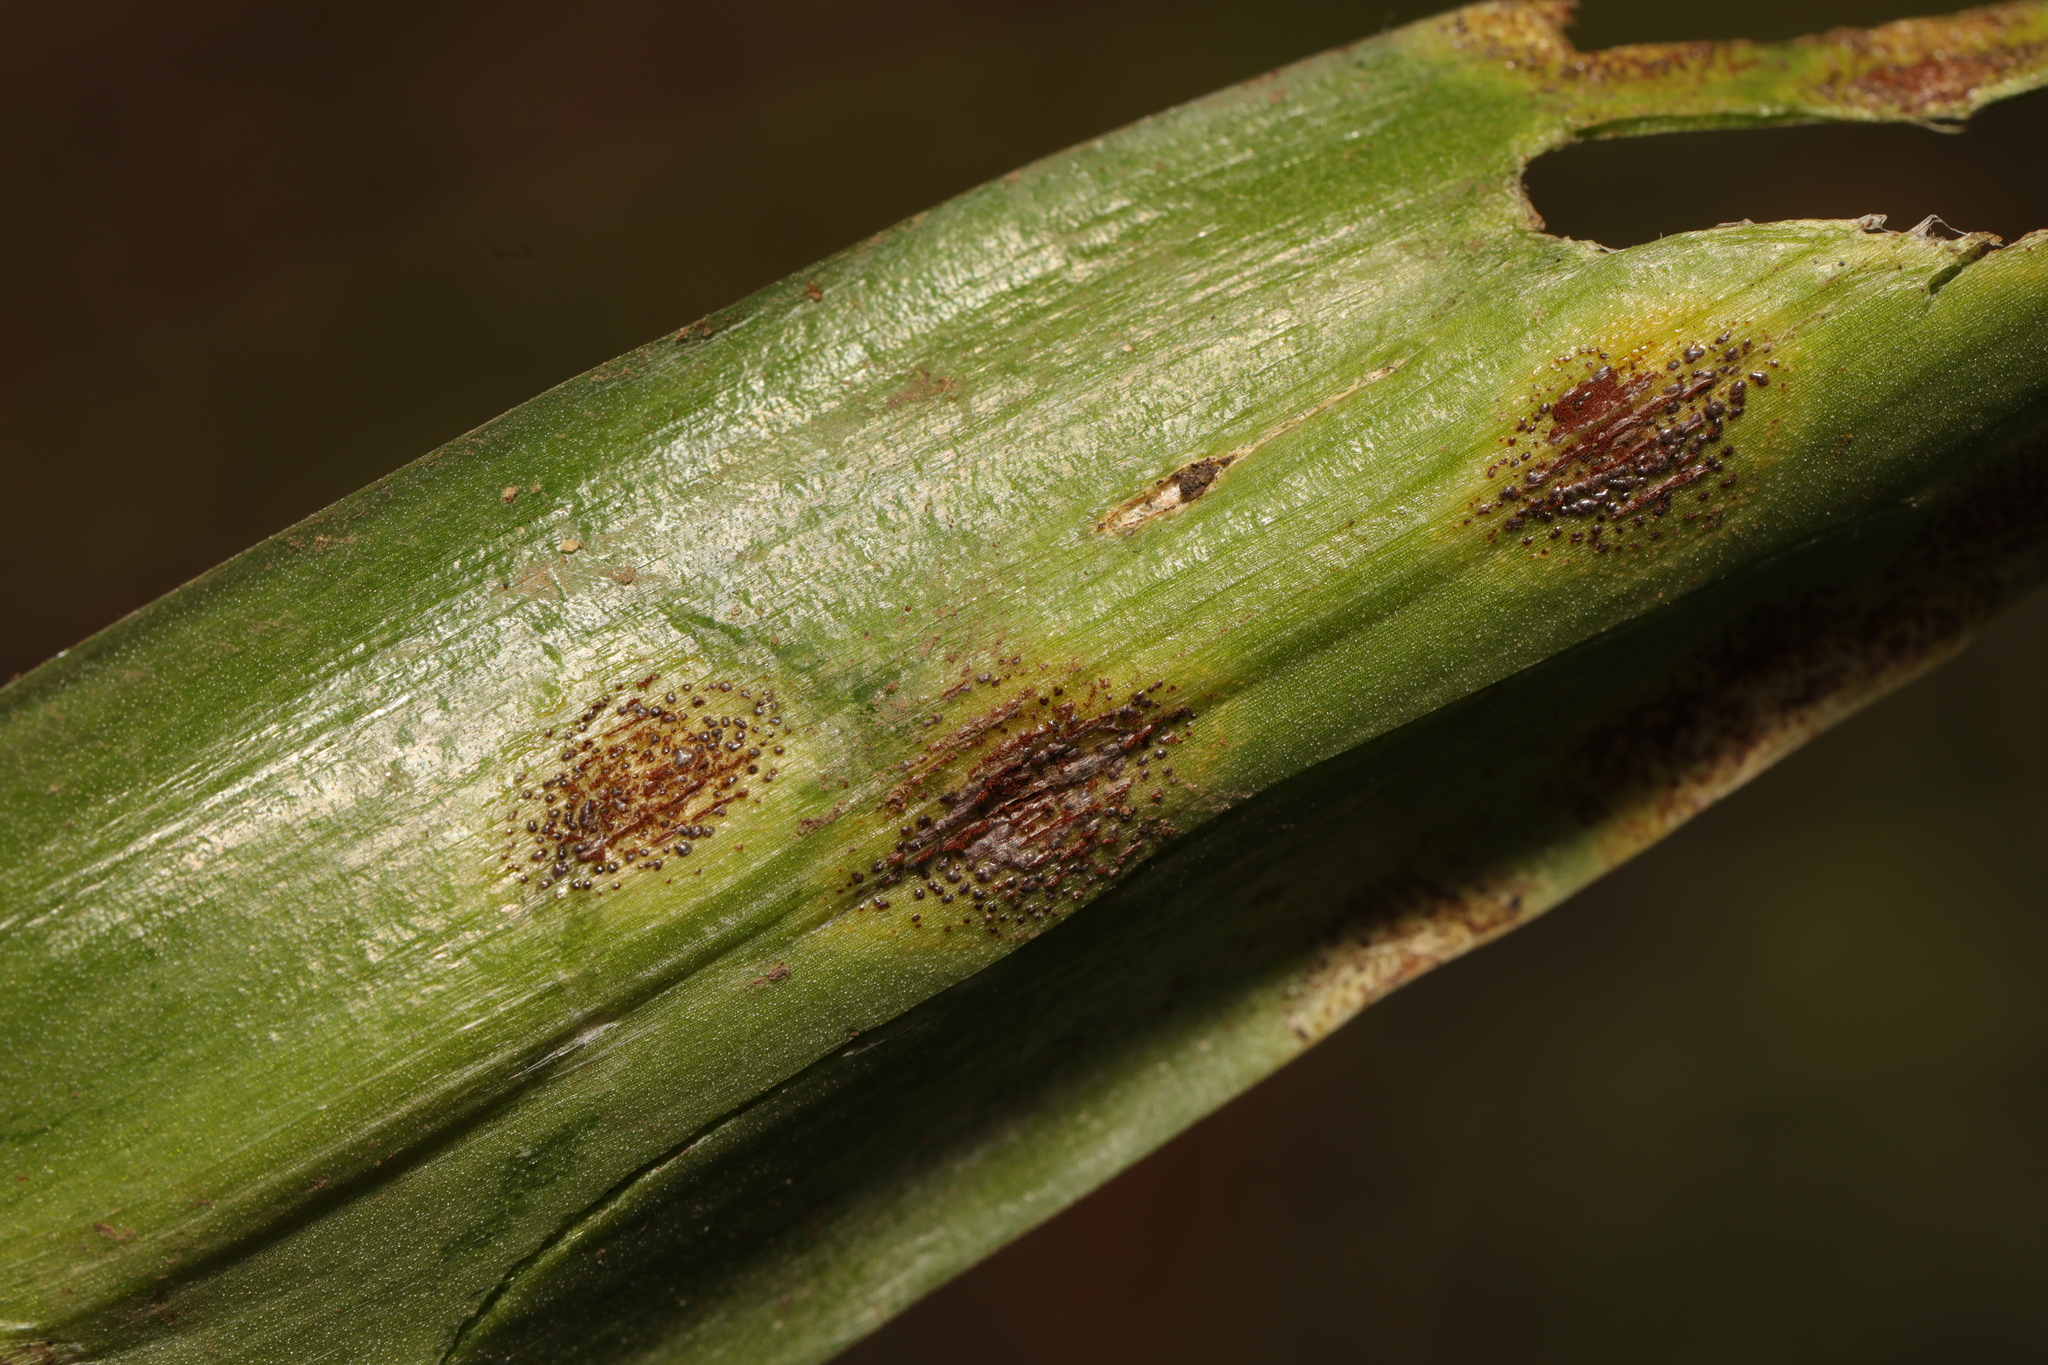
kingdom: Fungi
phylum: Basidiomycota
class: Pucciniomycetes
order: Pucciniales
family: Pucciniaceae
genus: Uromyces
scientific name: Uromyces hyacinthi
